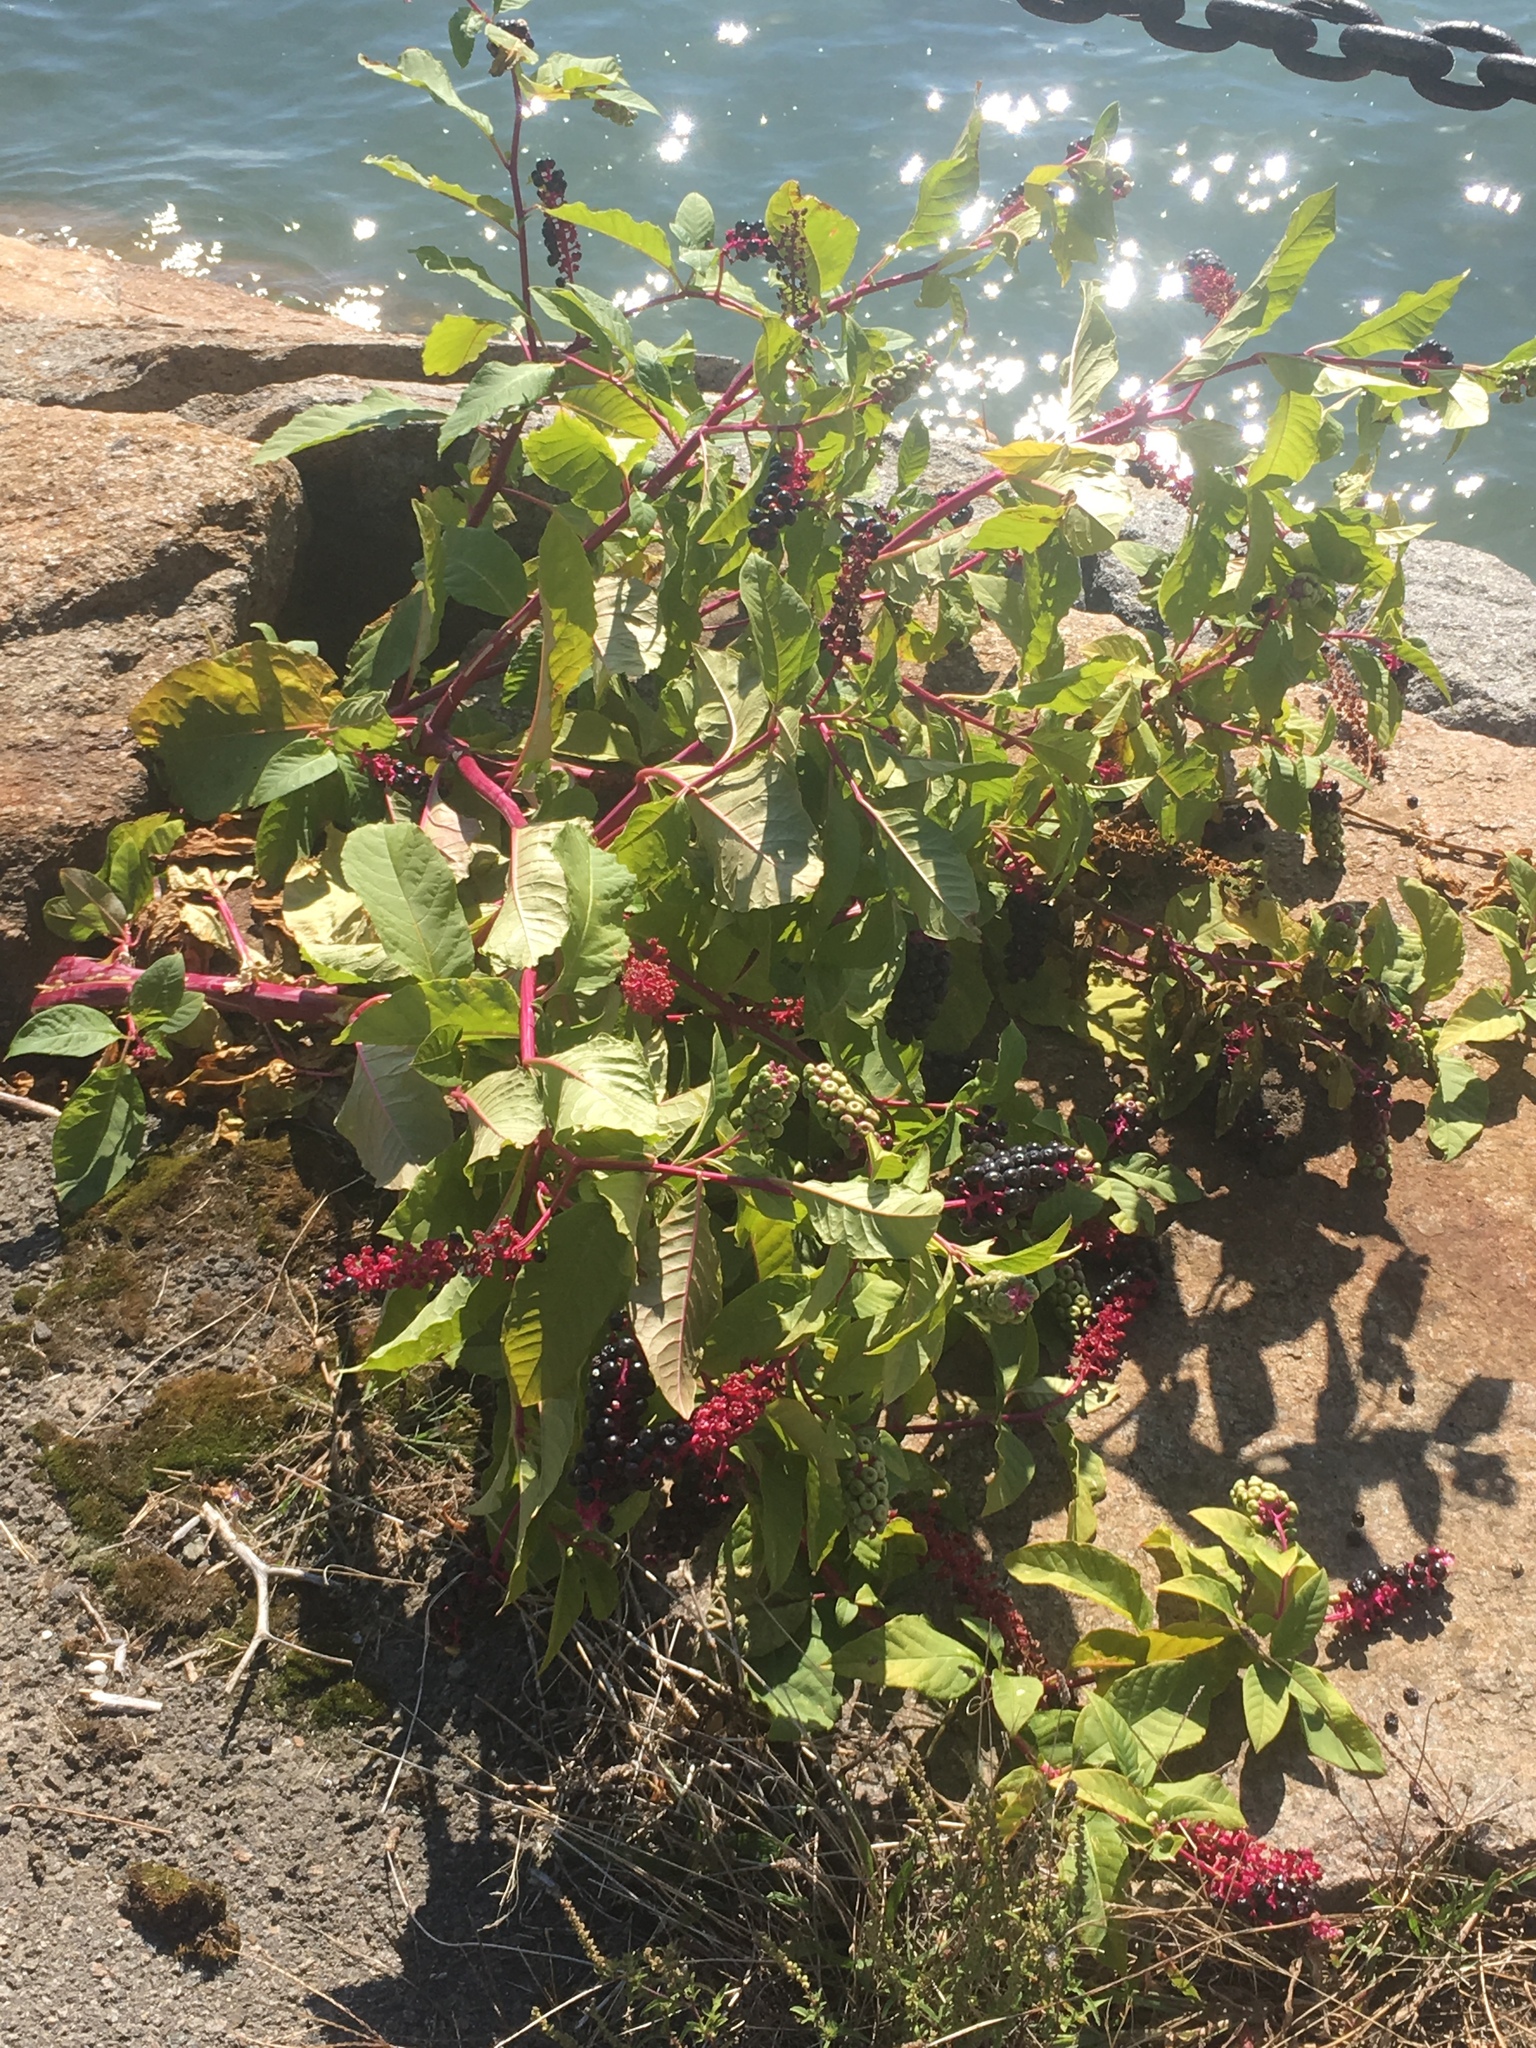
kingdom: Plantae
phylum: Tracheophyta
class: Magnoliopsida
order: Caryophyllales
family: Phytolaccaceae
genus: Phytolacca
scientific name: Phytolacca americana
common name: American pokeweed
